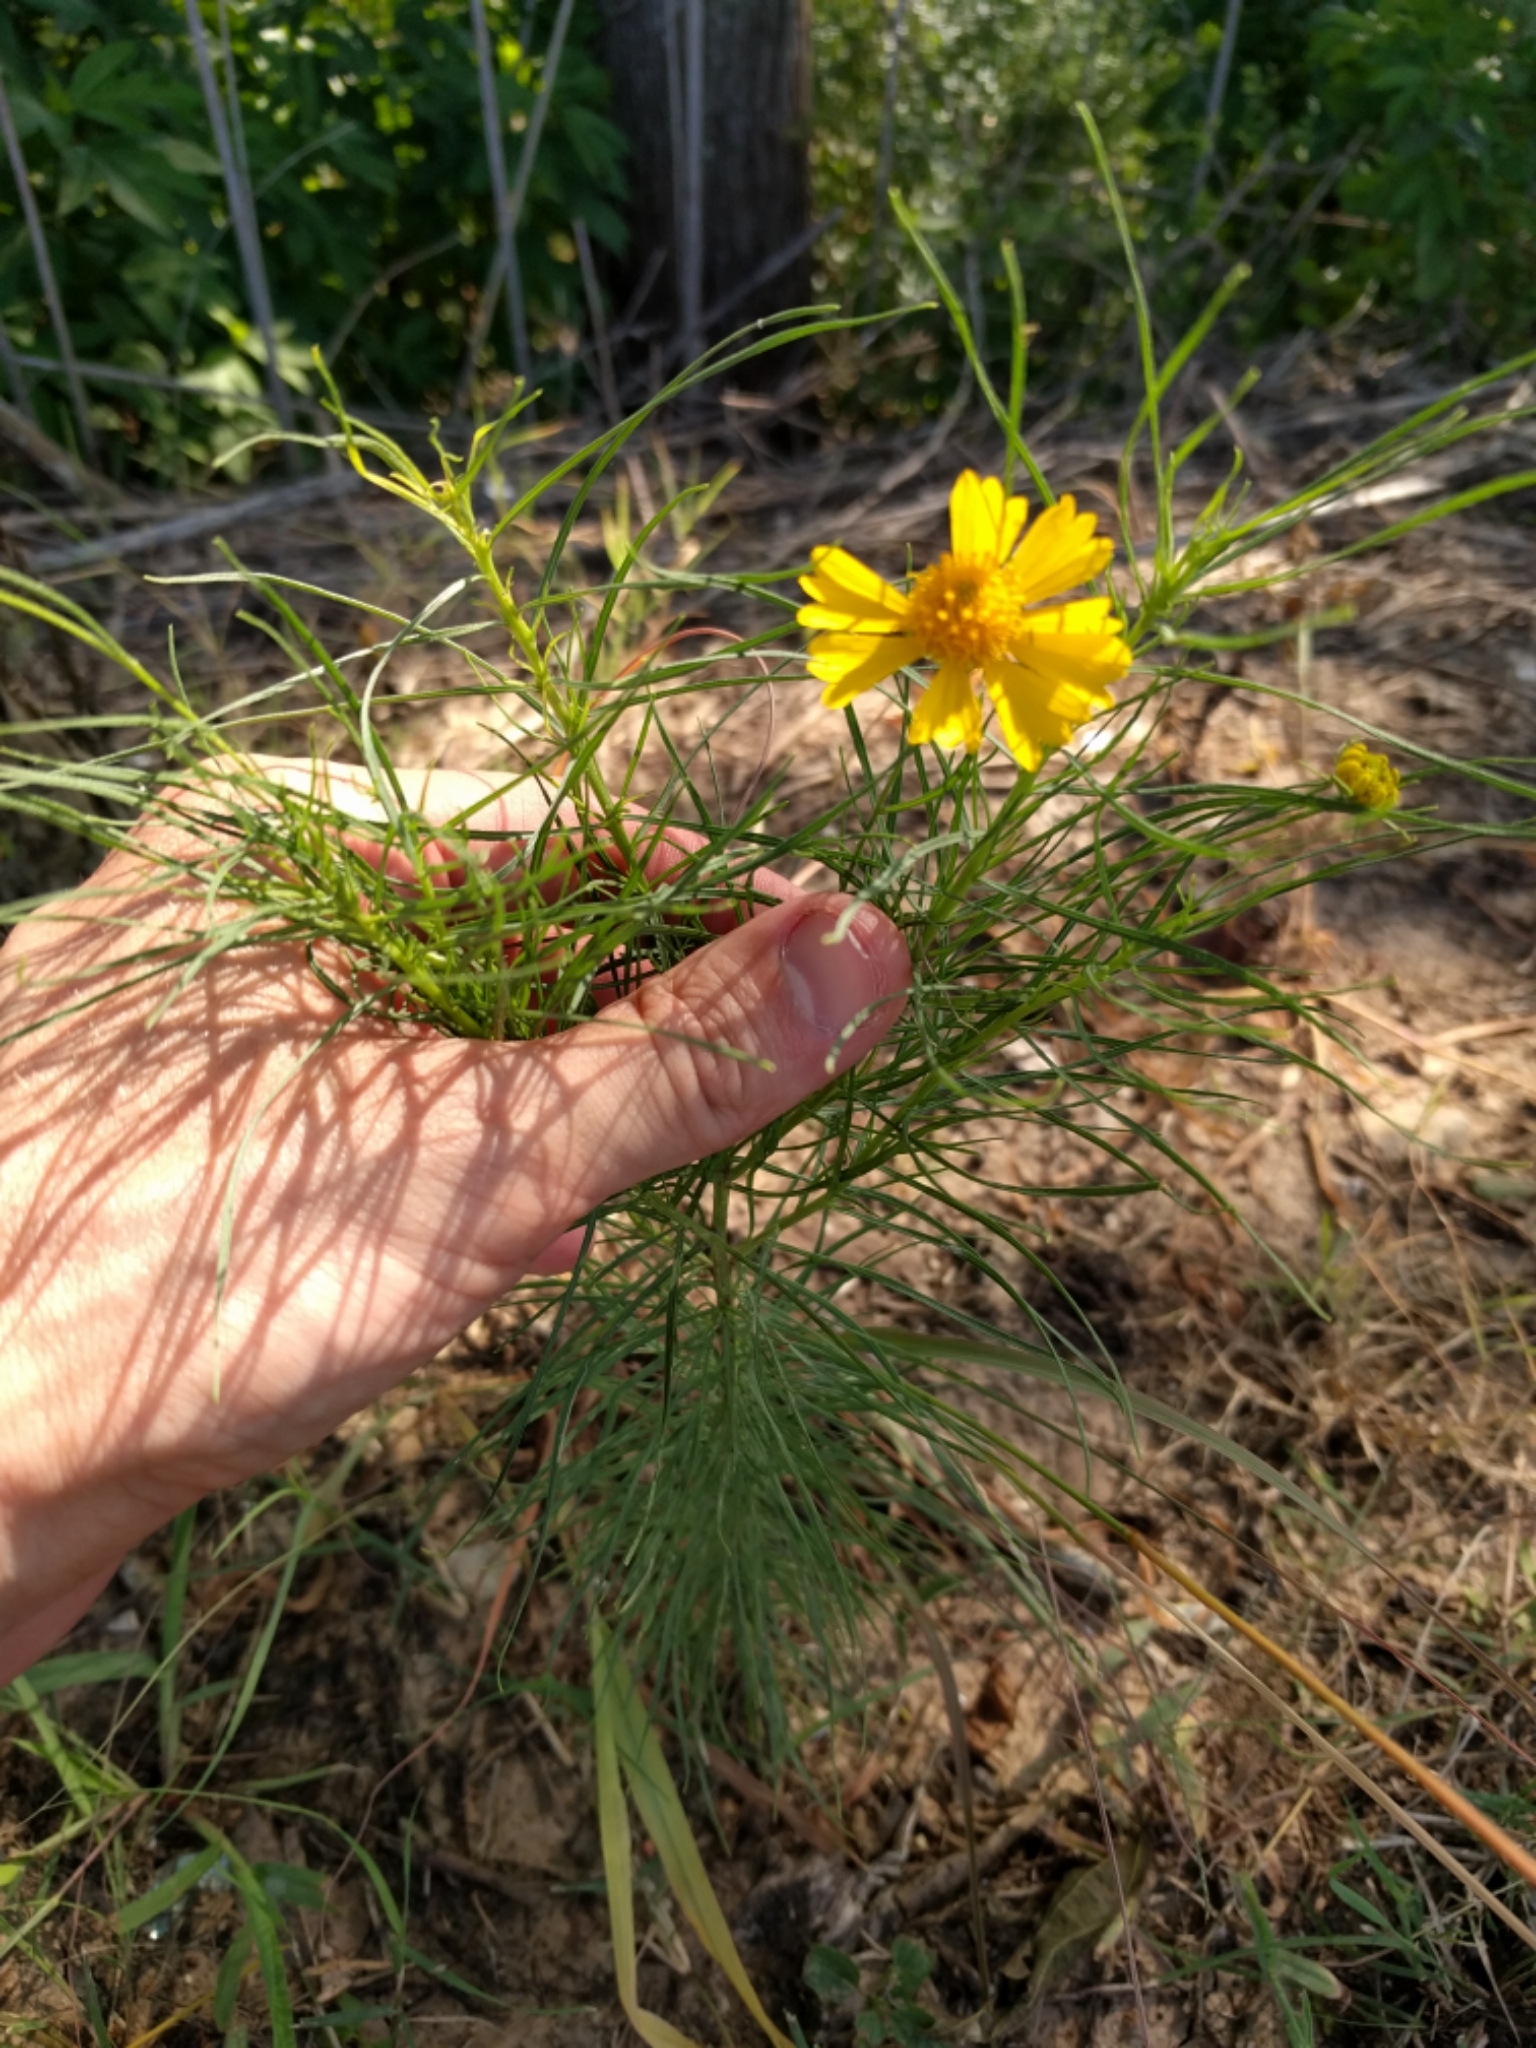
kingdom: Plantae
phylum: Tracheophyta
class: Magnoliopsida
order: Asterales
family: Asteraceae
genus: Helenium
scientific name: Helenium amarum
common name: Bitter sneezeweed
